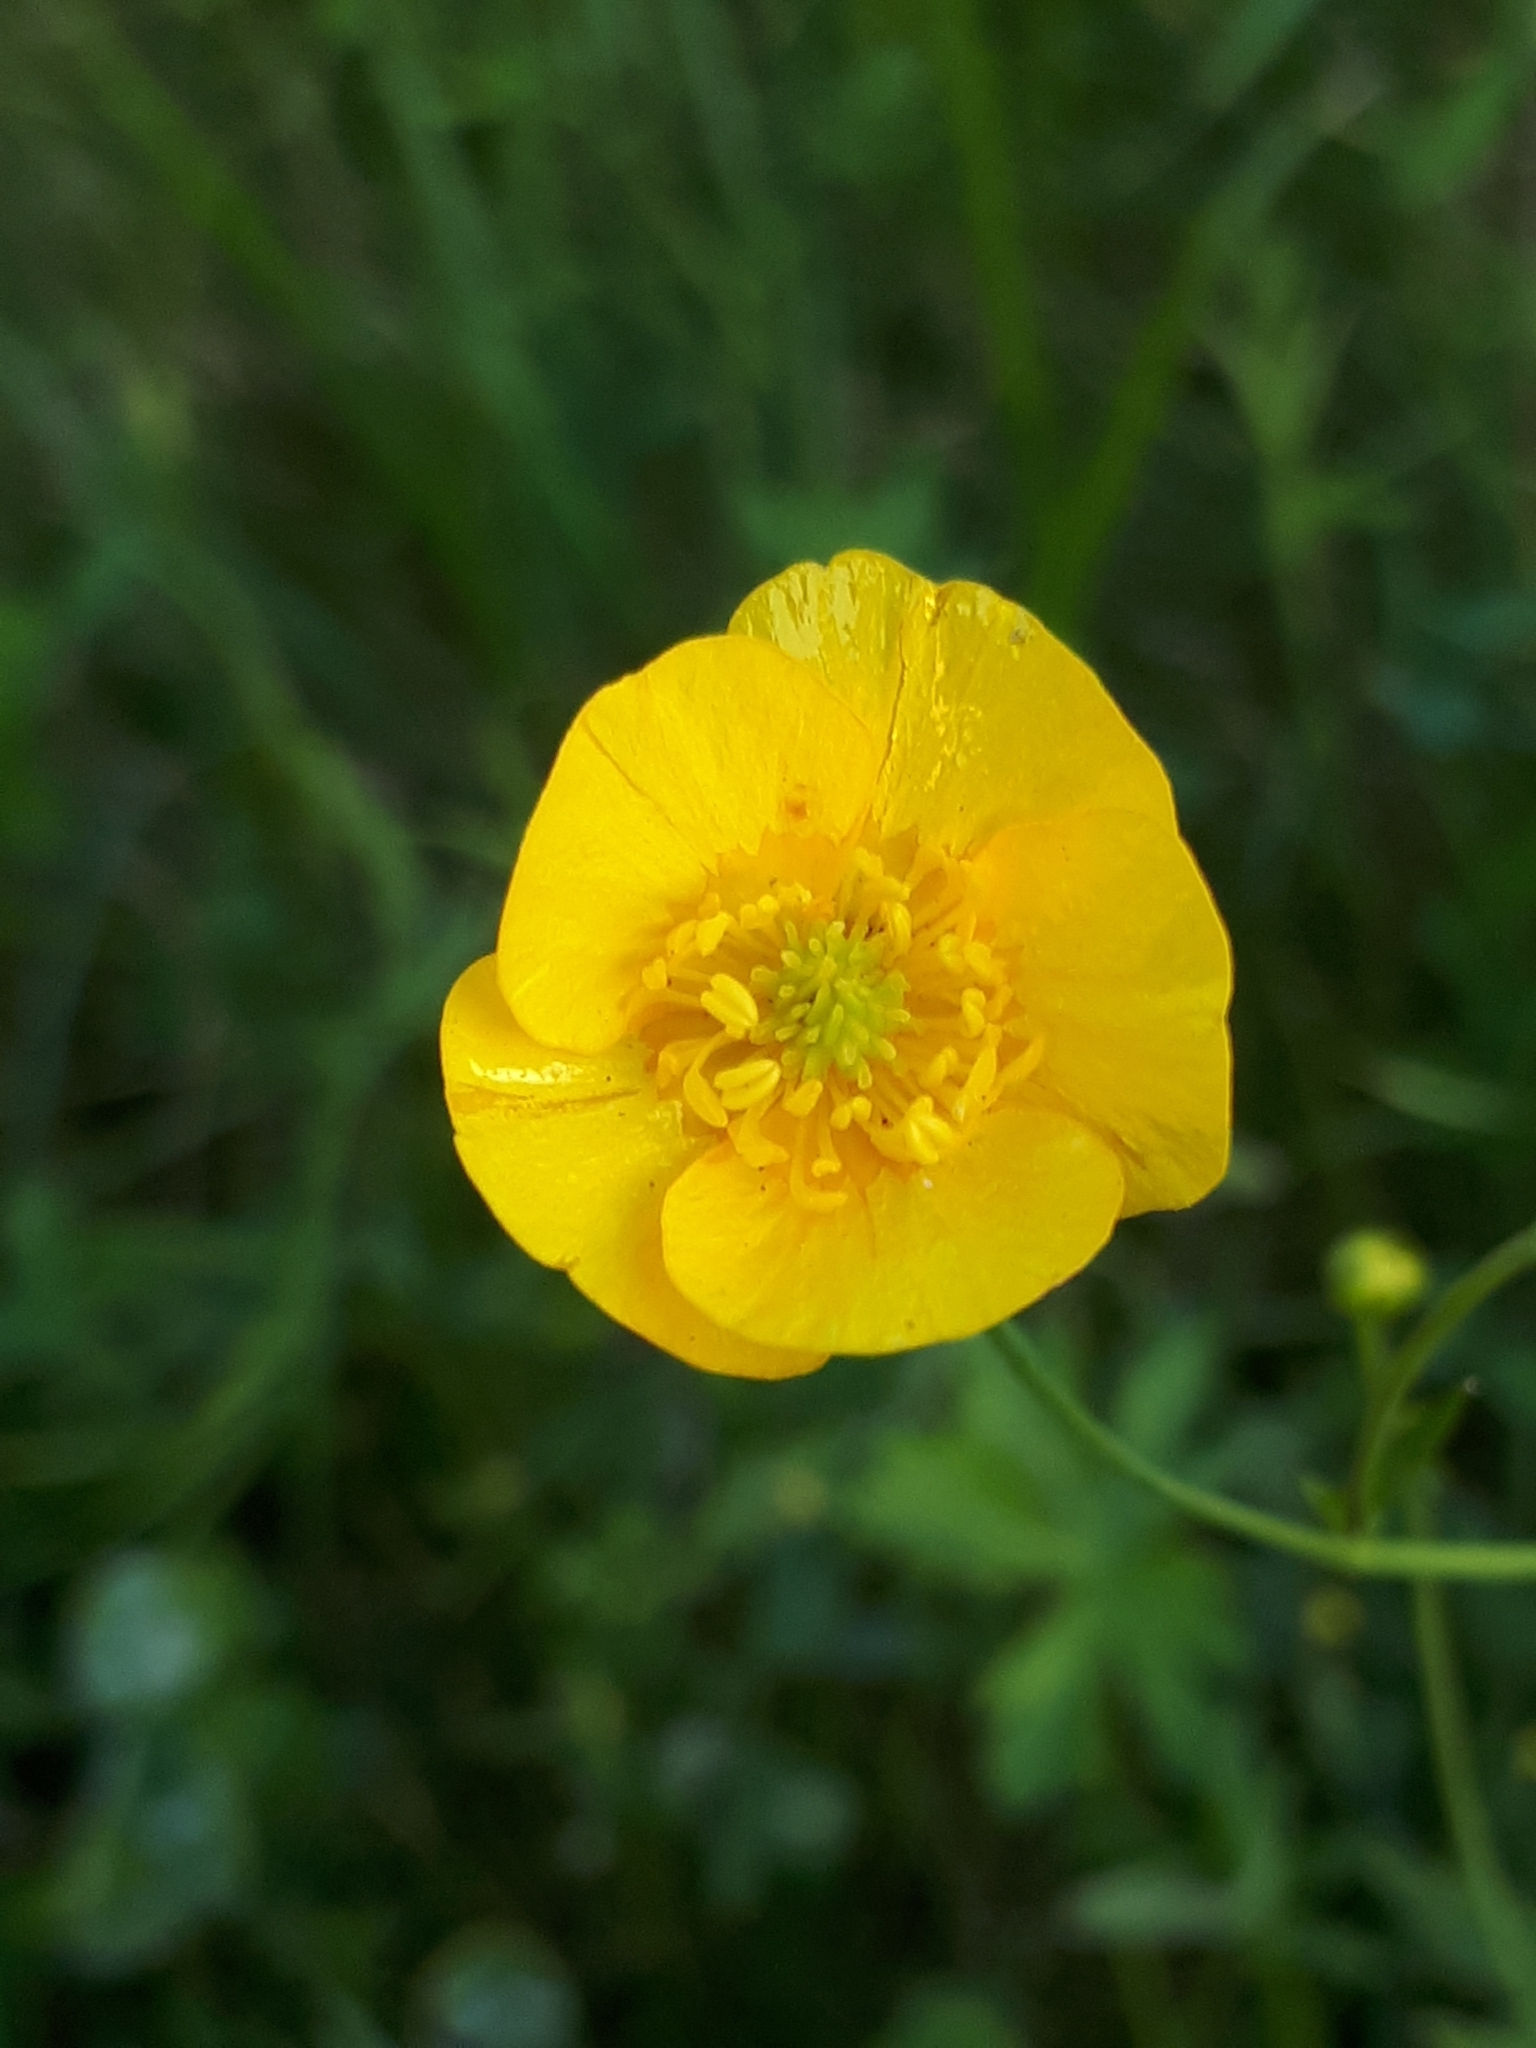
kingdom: Plantae
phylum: Tracheophyta
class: Magnoliopsida
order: Ranunculales
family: Ranunculaceae
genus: Ranunculus
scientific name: Ranunculus acris
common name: Meadow buttercup
